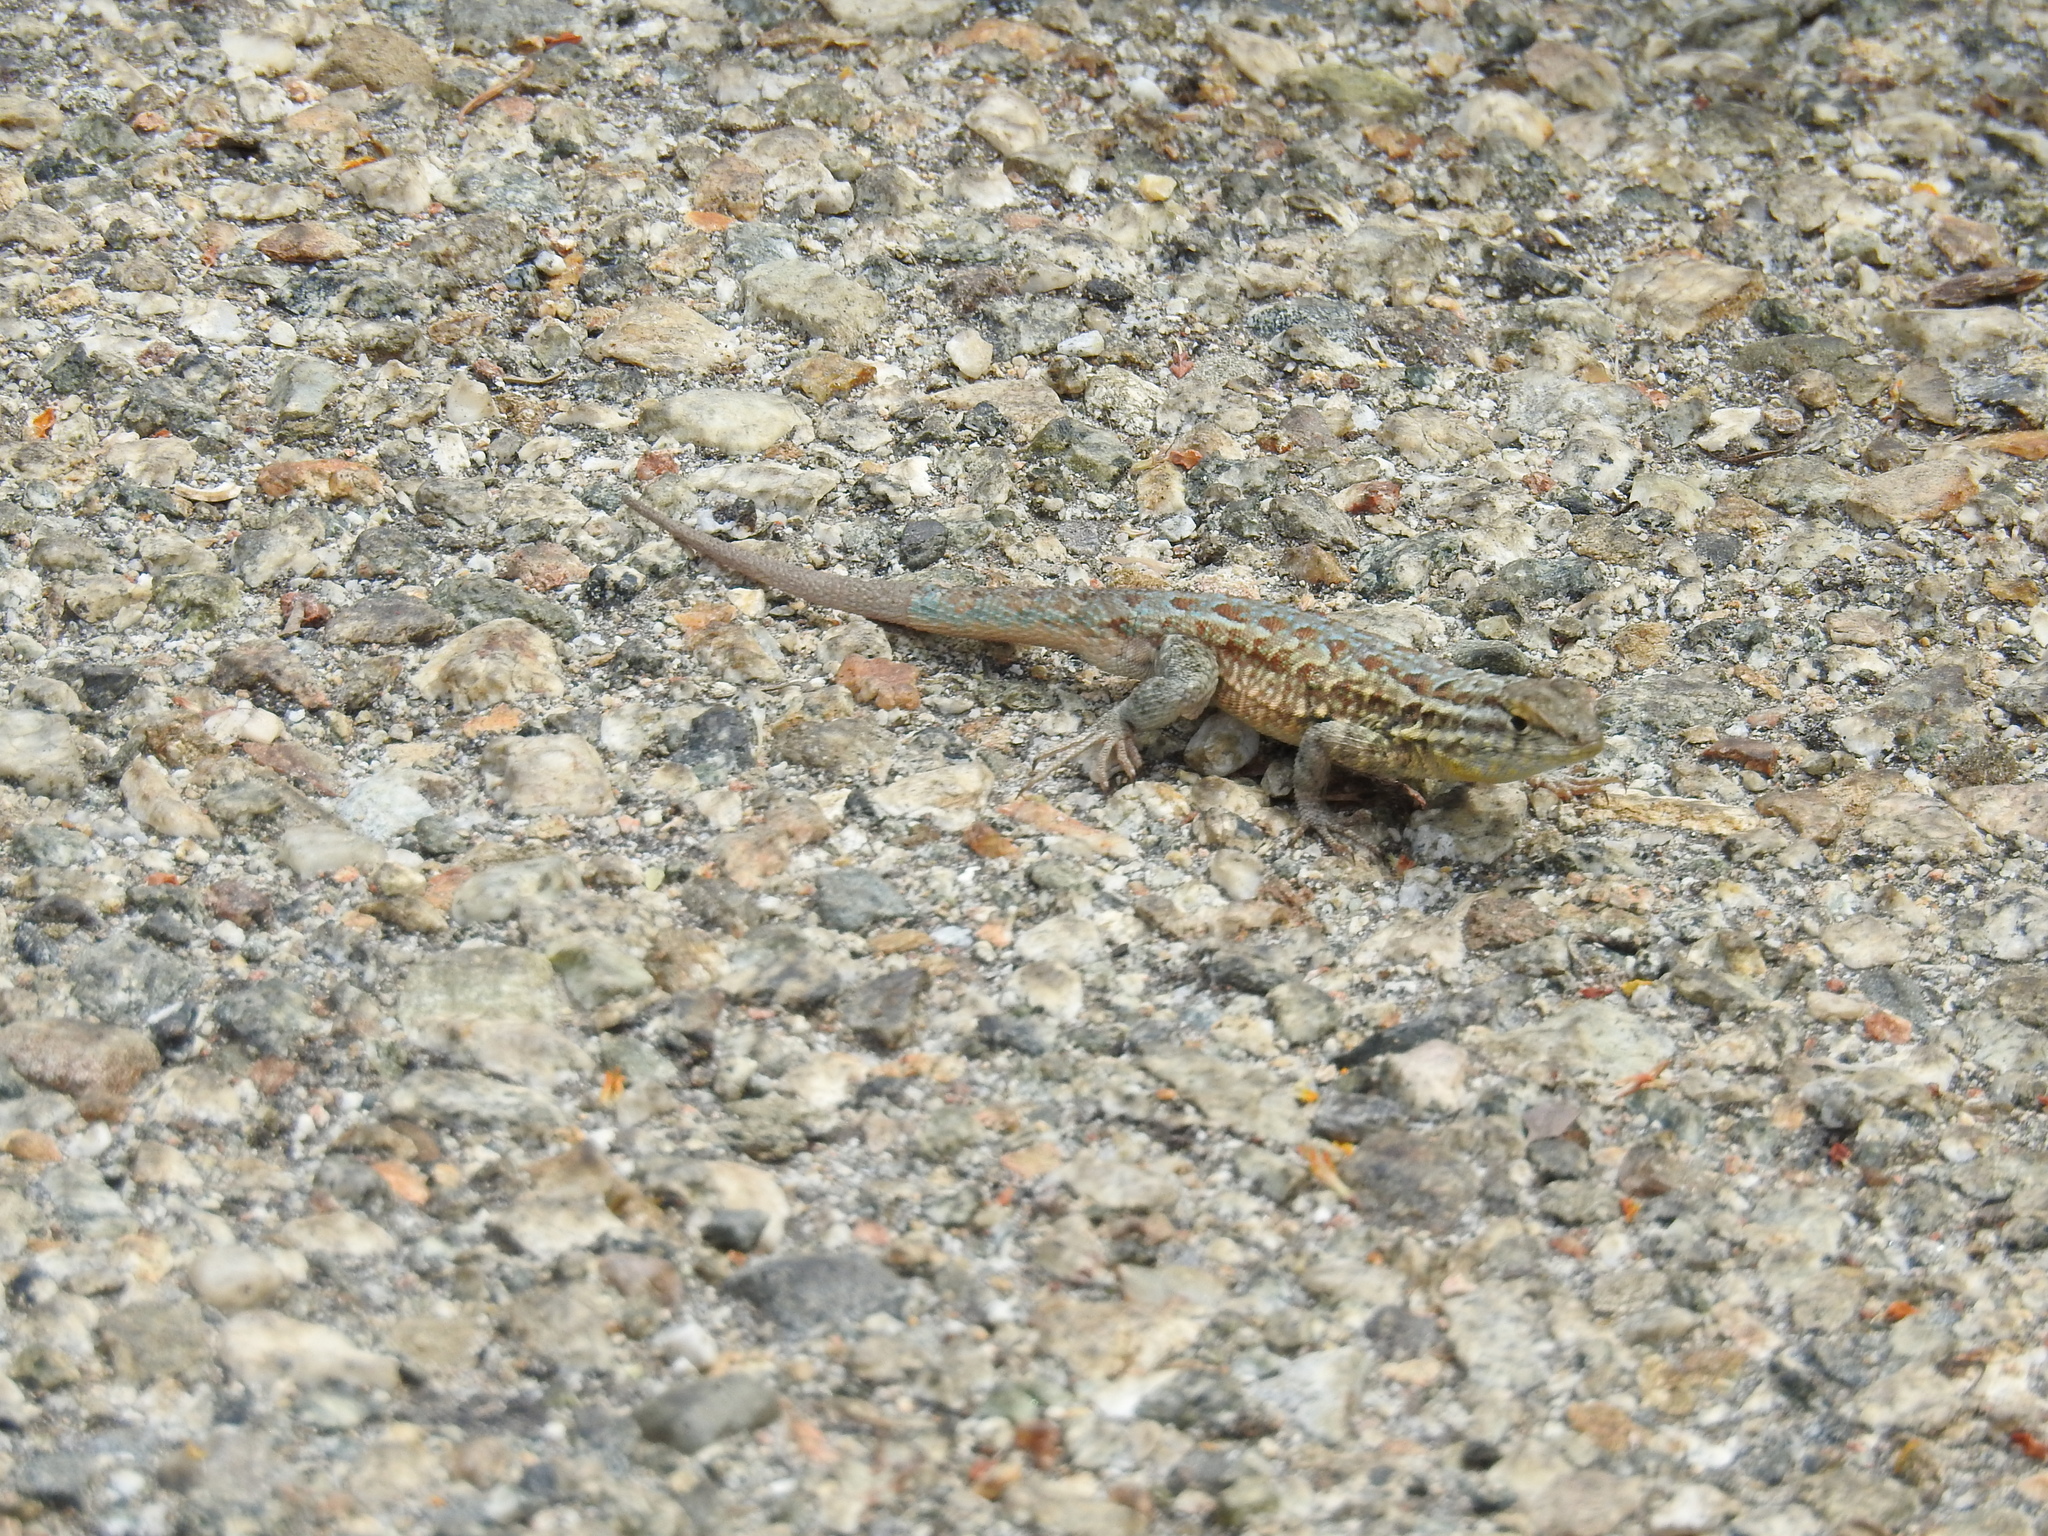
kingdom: Animalia
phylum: Chordata
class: Squamata
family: Phrynosomatidae
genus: Uta
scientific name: Uta stansburiana
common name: Side-blotched lizard
